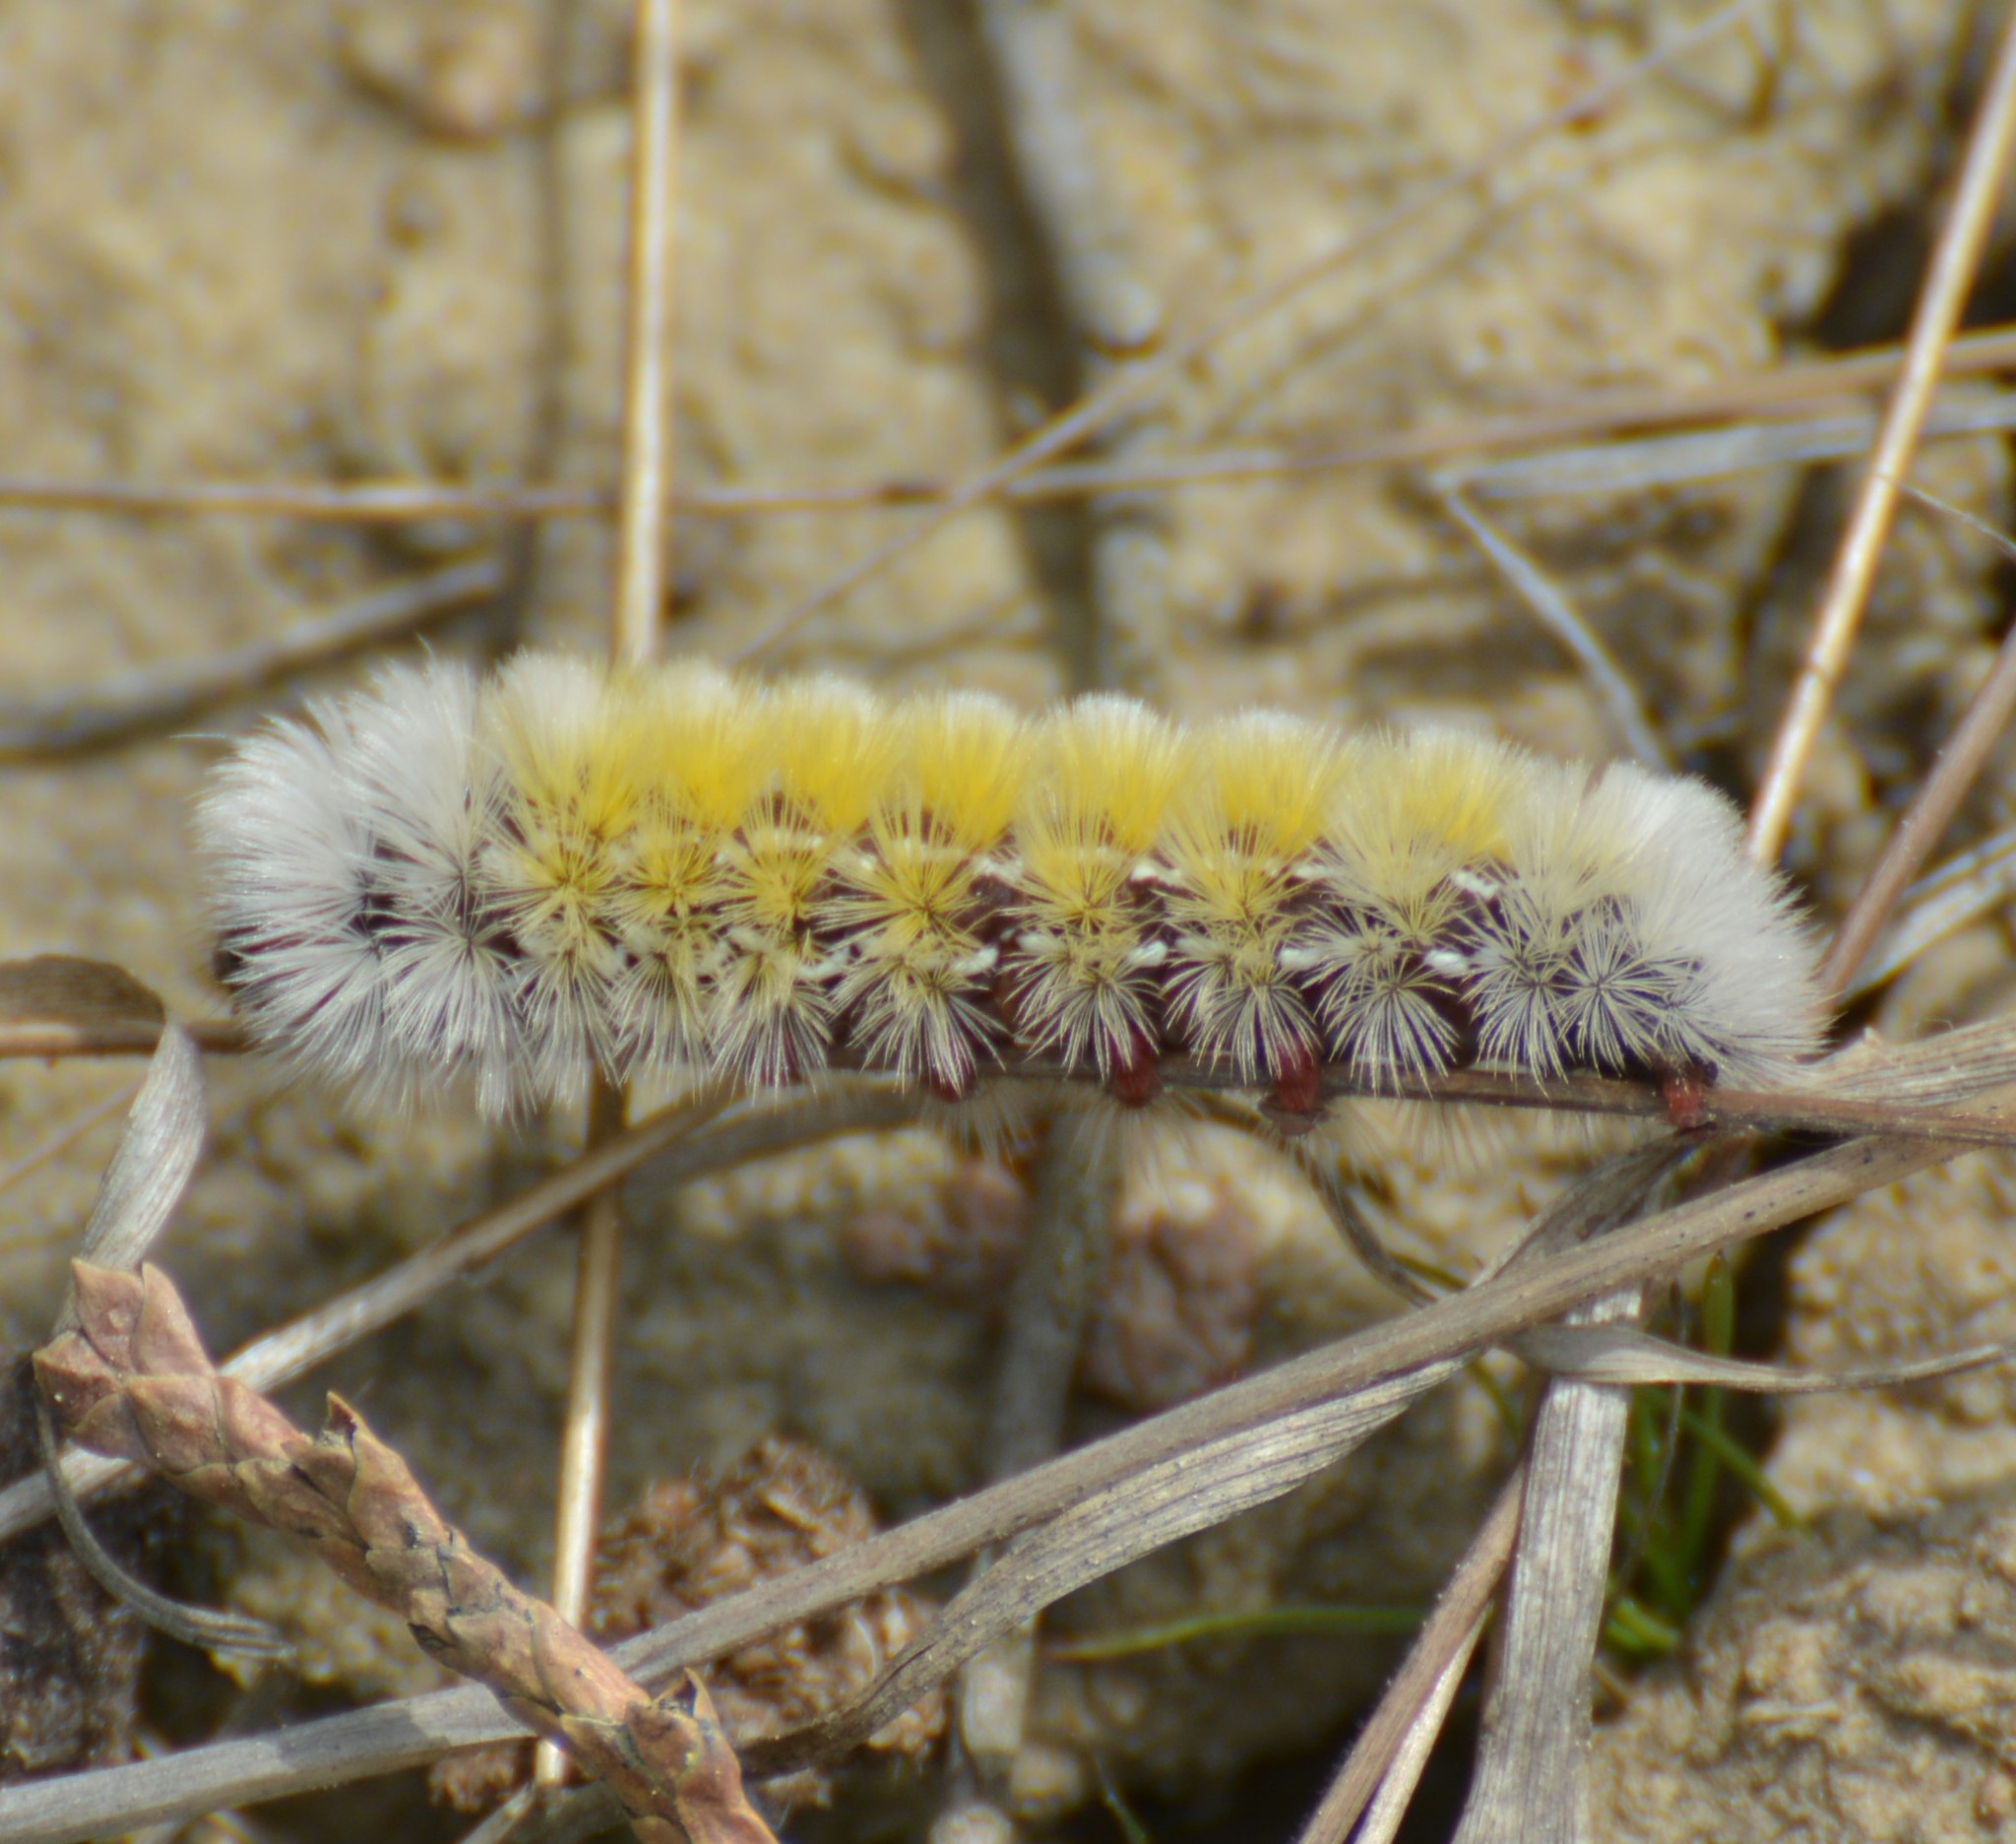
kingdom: Animalia
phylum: Arthropoda
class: Insecta
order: Lepidoptera
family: Erebidae
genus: Ctenucha
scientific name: Ctenucha virginica
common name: Virginia ctenucha moth
